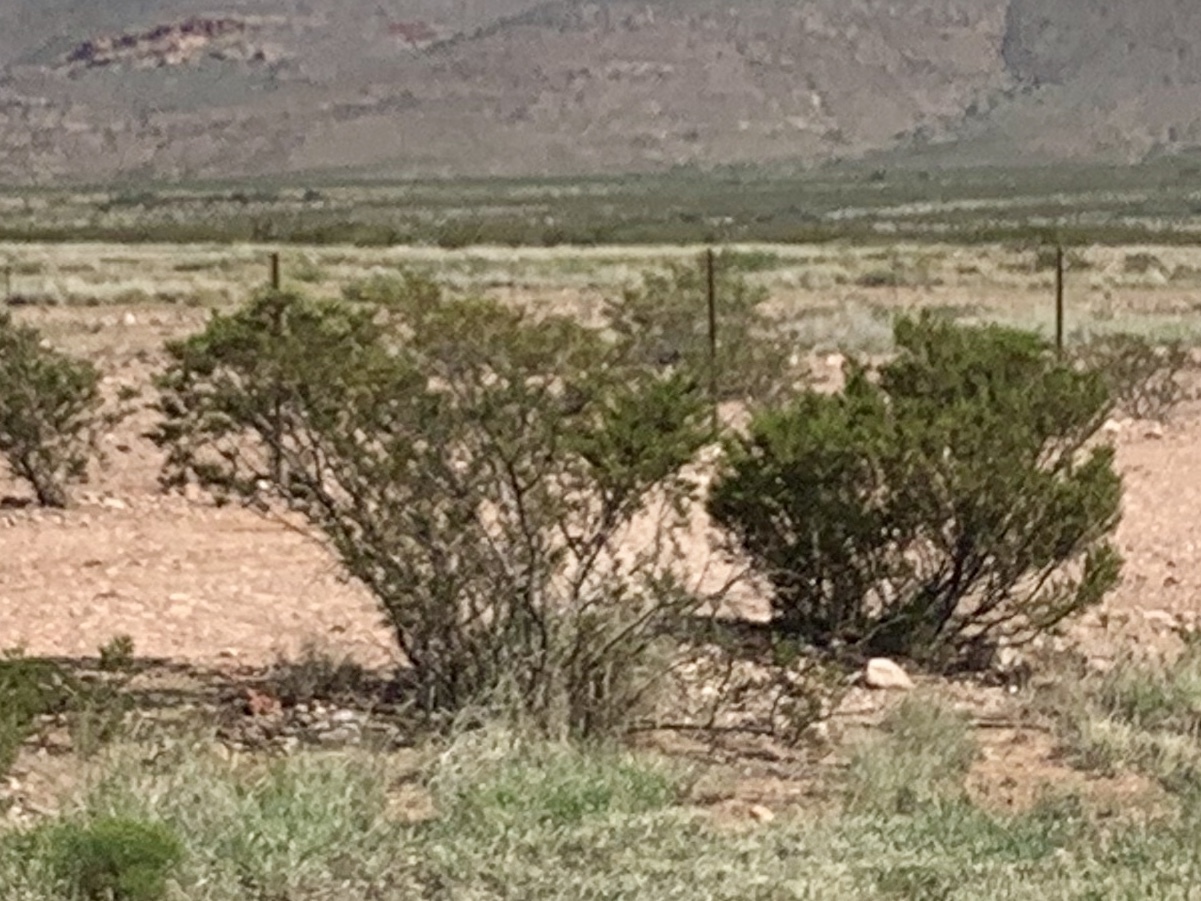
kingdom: Plantae
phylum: Tracheophyta
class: Magnoliopsida
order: Zygophyllales
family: Zygophyllaceae
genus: Larrea
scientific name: Larrea tridentata
